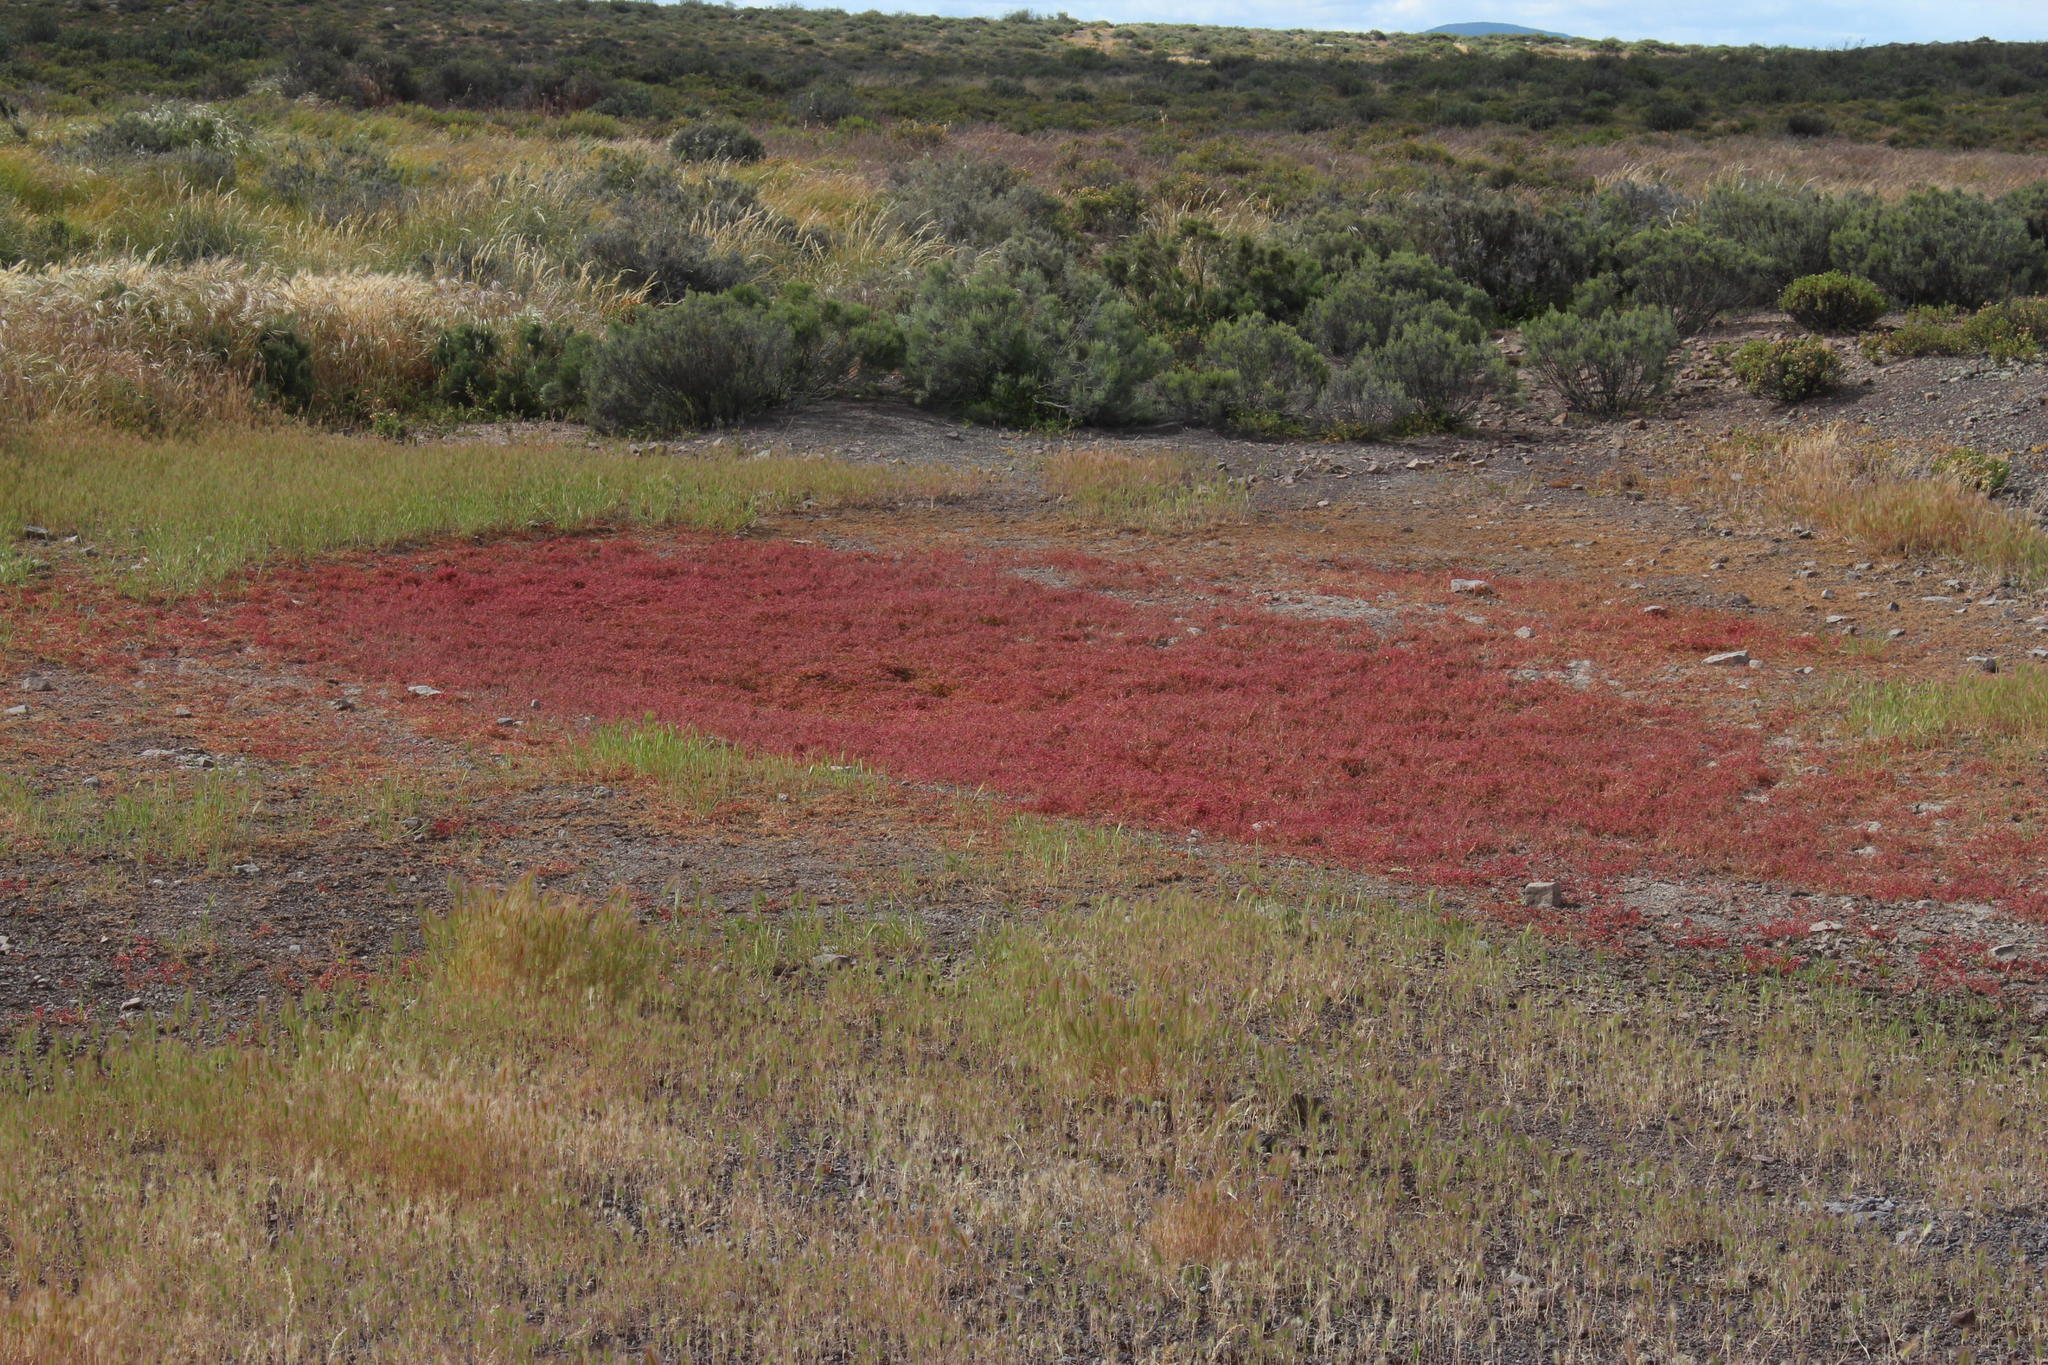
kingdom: Plantae
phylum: Tracheophyta
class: Magnoliopsida
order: Saxifragales
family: Crassulaceae
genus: Crassula
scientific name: Crassula vaillantii
